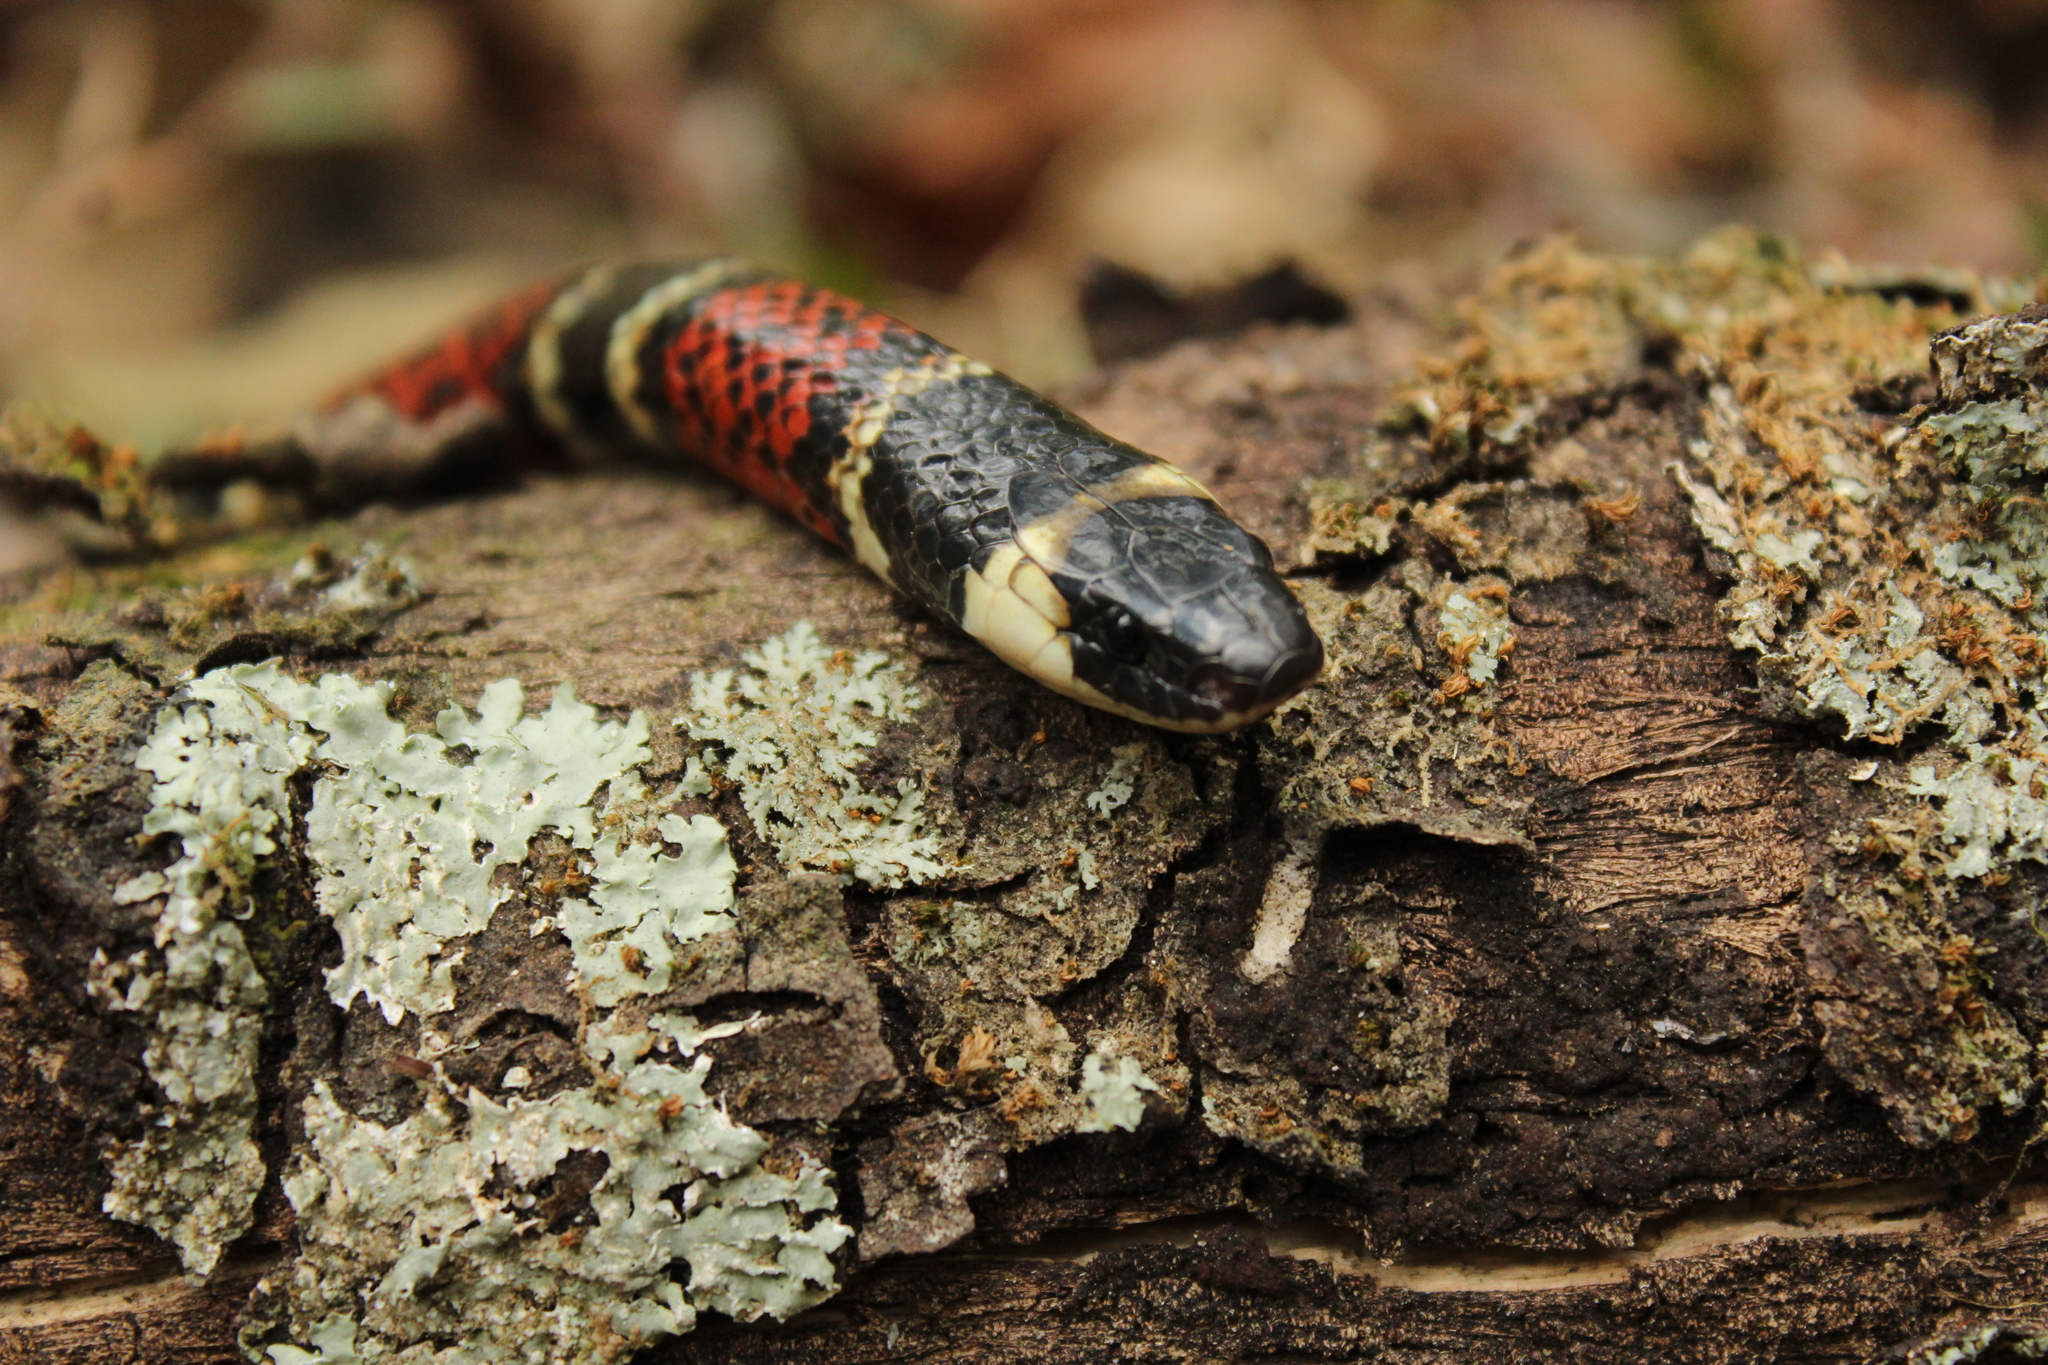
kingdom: Animalia
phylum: Chordata
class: Squamata
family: Colubridae
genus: Pliocercus
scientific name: Pliocercus elapoides
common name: Variegated false coral snake.
